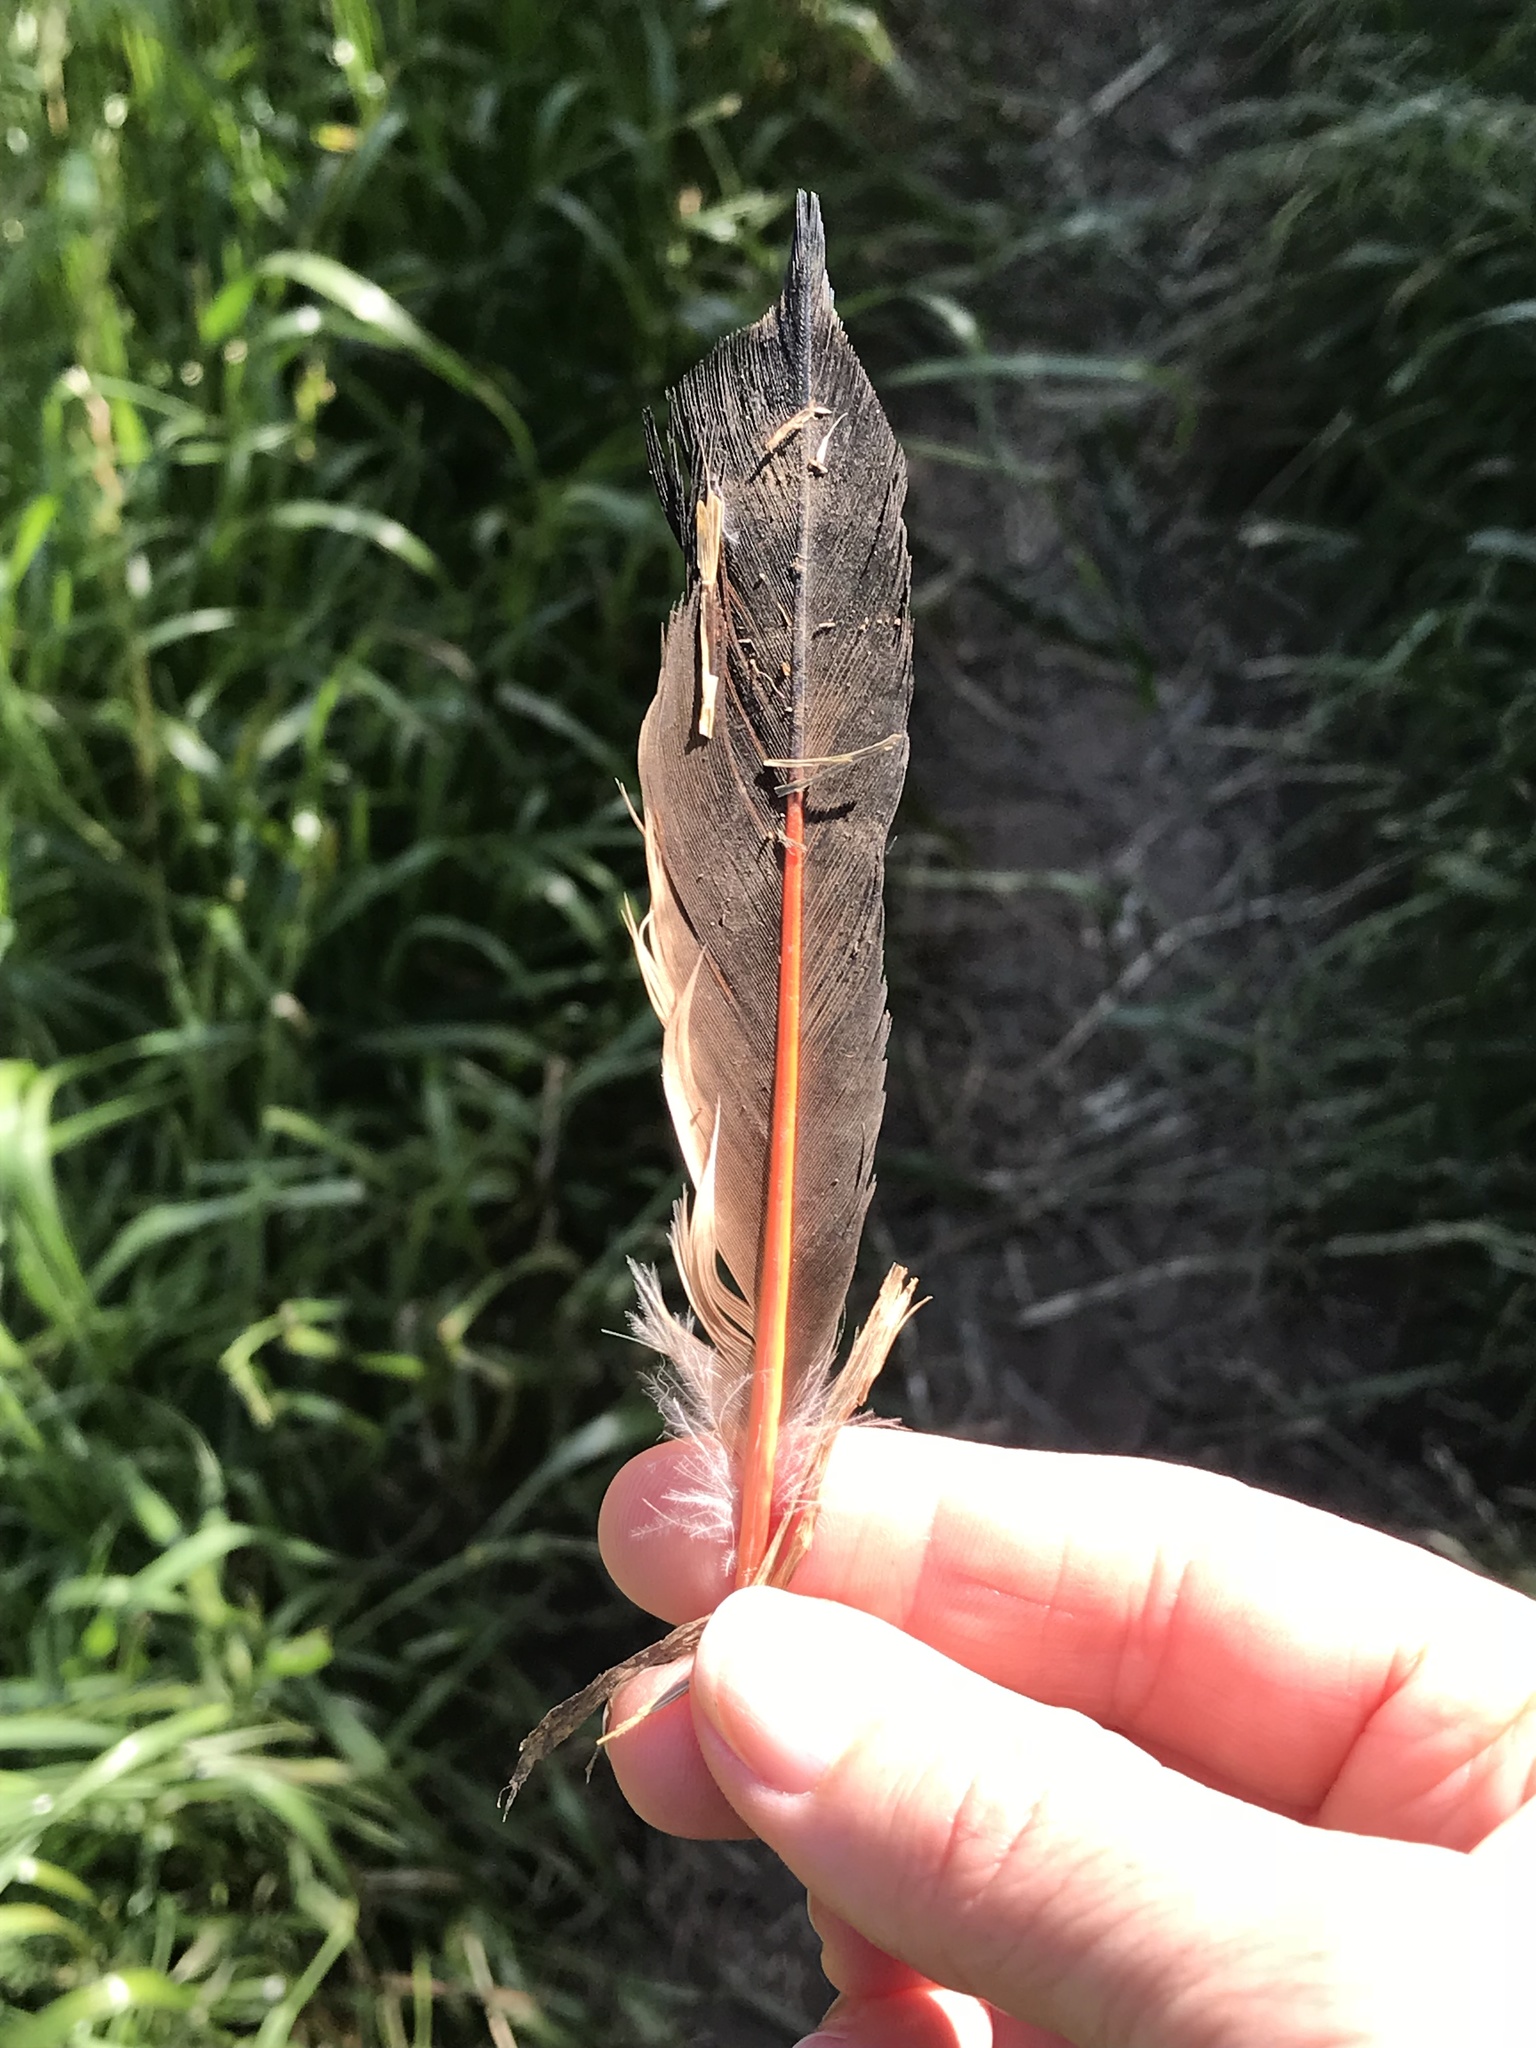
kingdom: Animalia
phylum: Chordata
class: Aves
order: Piciformes
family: Picidae
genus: Colaptes
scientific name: Colaptes auratus
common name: Northern flicker
